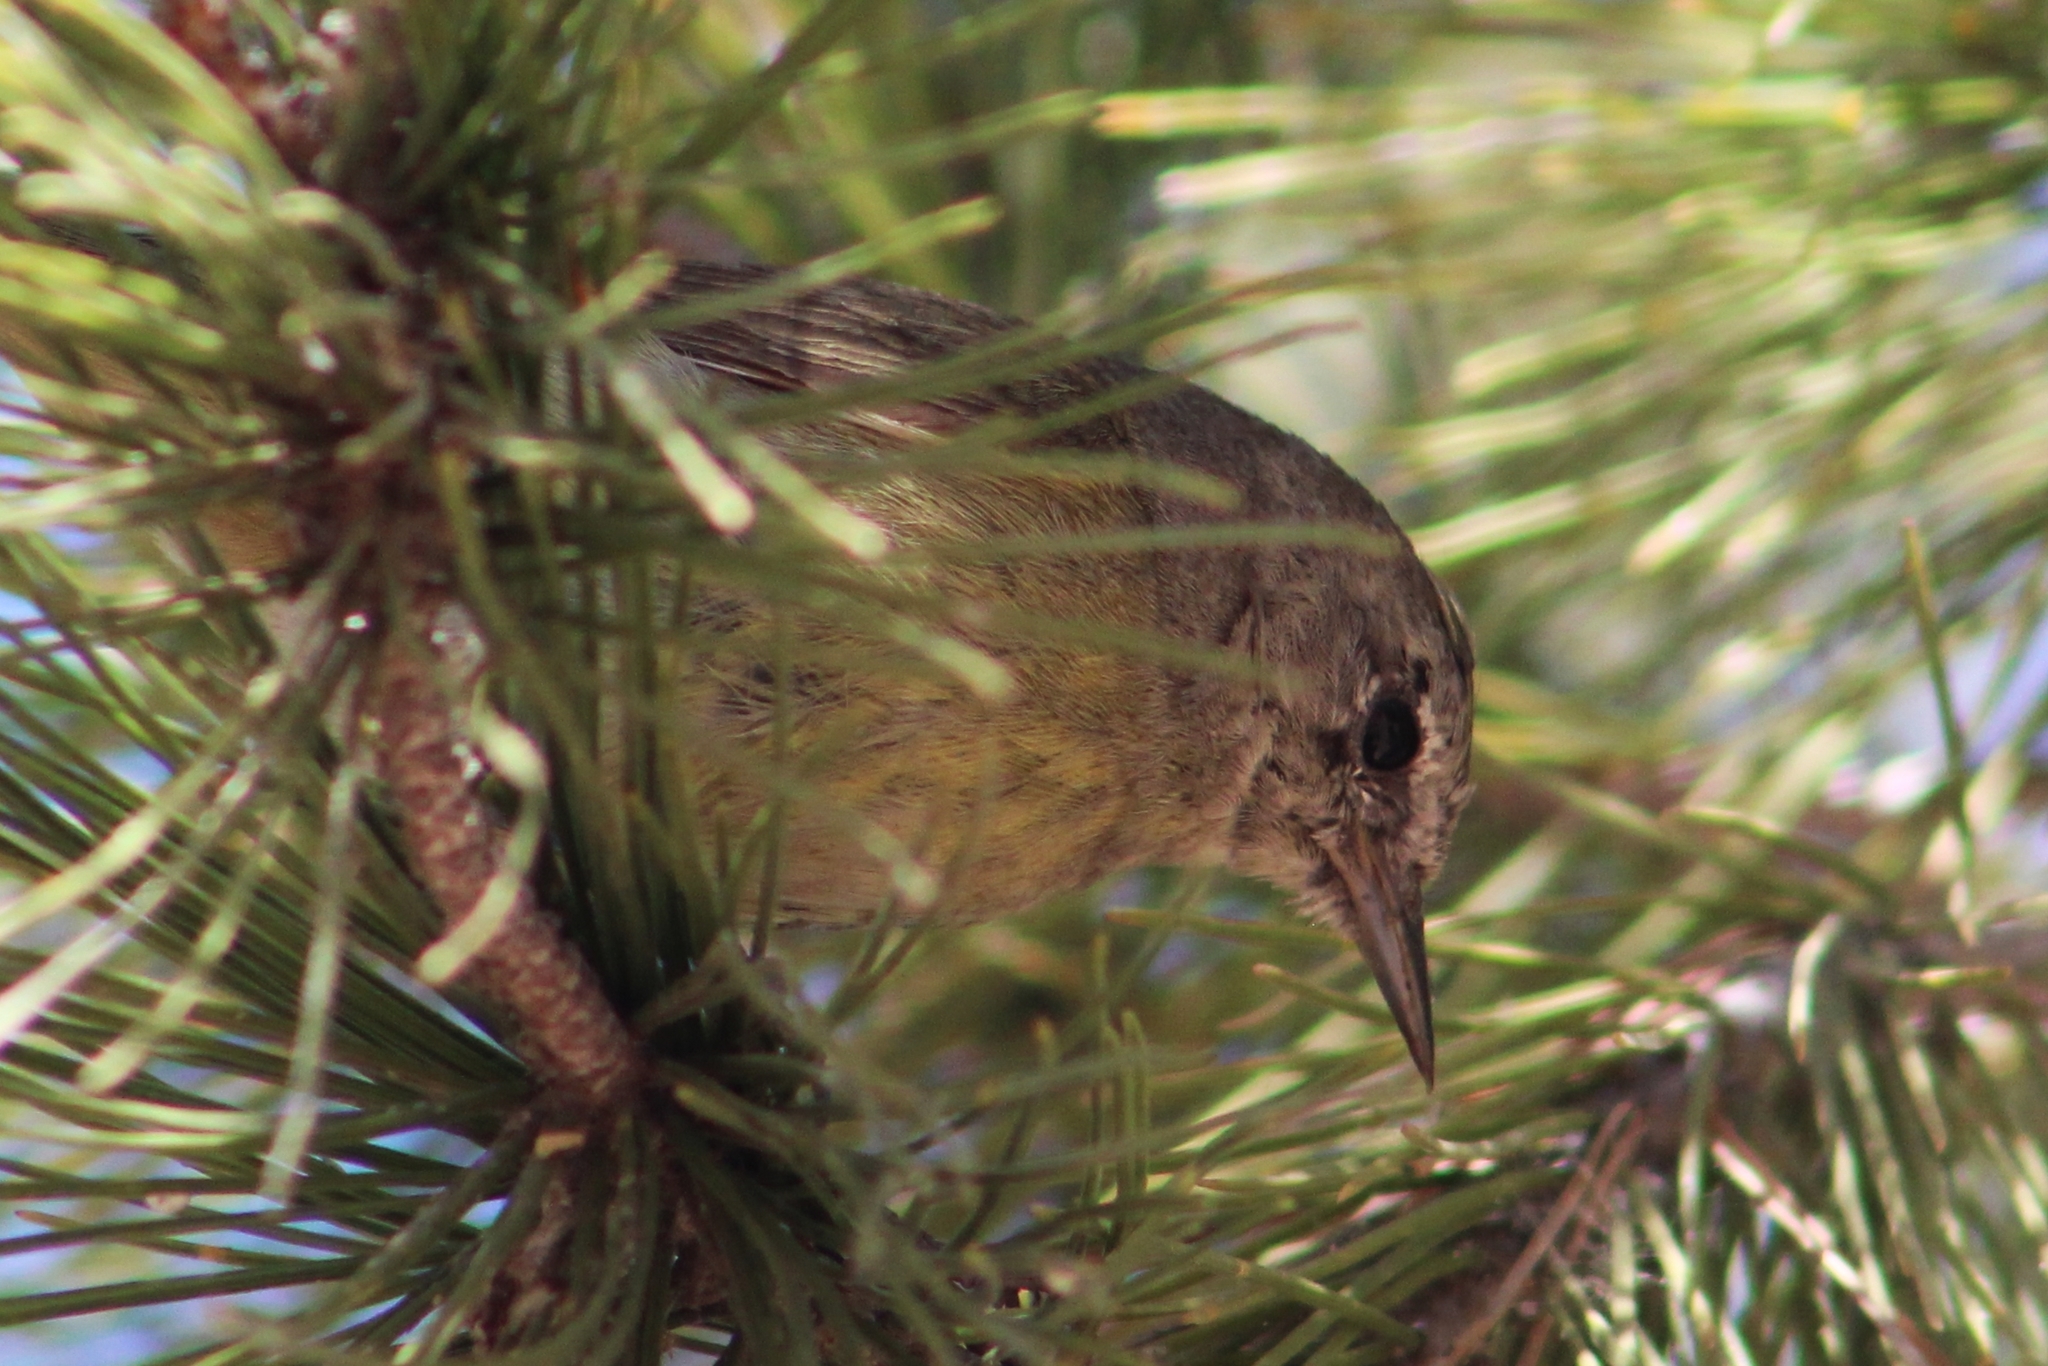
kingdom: Animalia
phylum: Chordata
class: Aves
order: Passeriformes
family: Parulidae
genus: Leiothlypis
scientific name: Leiothlypis celata
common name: Orange-crowned warbler
